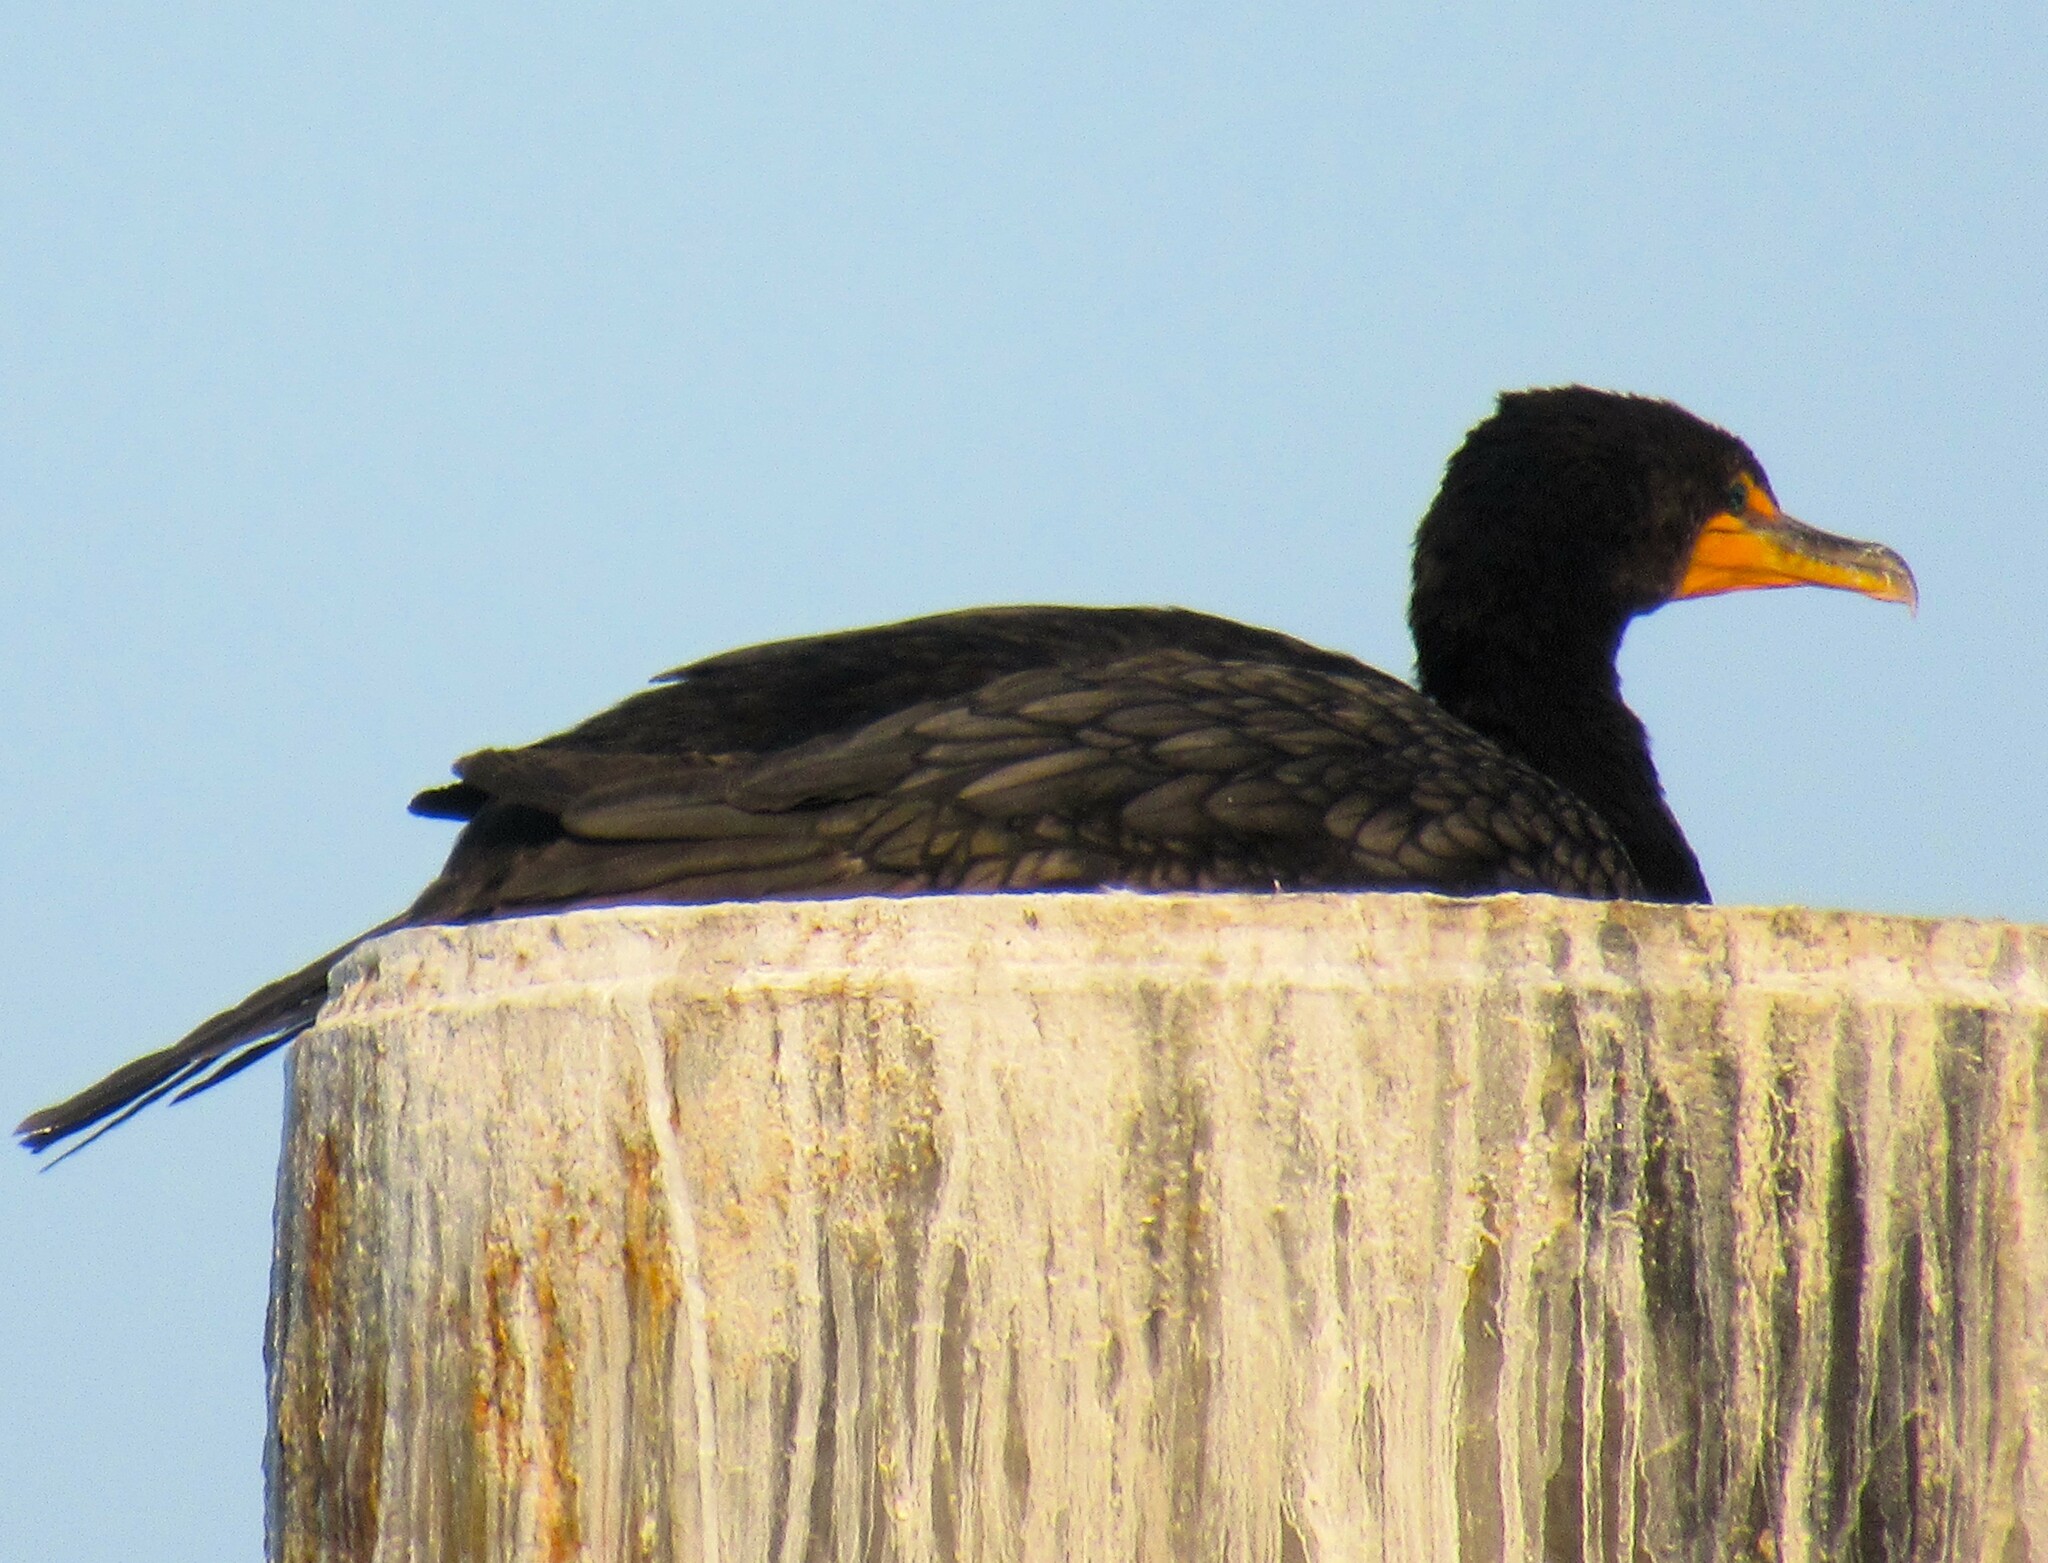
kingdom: Animalia
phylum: Chordata
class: Aves
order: Suliformes
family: Phalacrocoracidae
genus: Phalacrocorax
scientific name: Phalacrocorax auritus
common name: Double-crested cormorant
